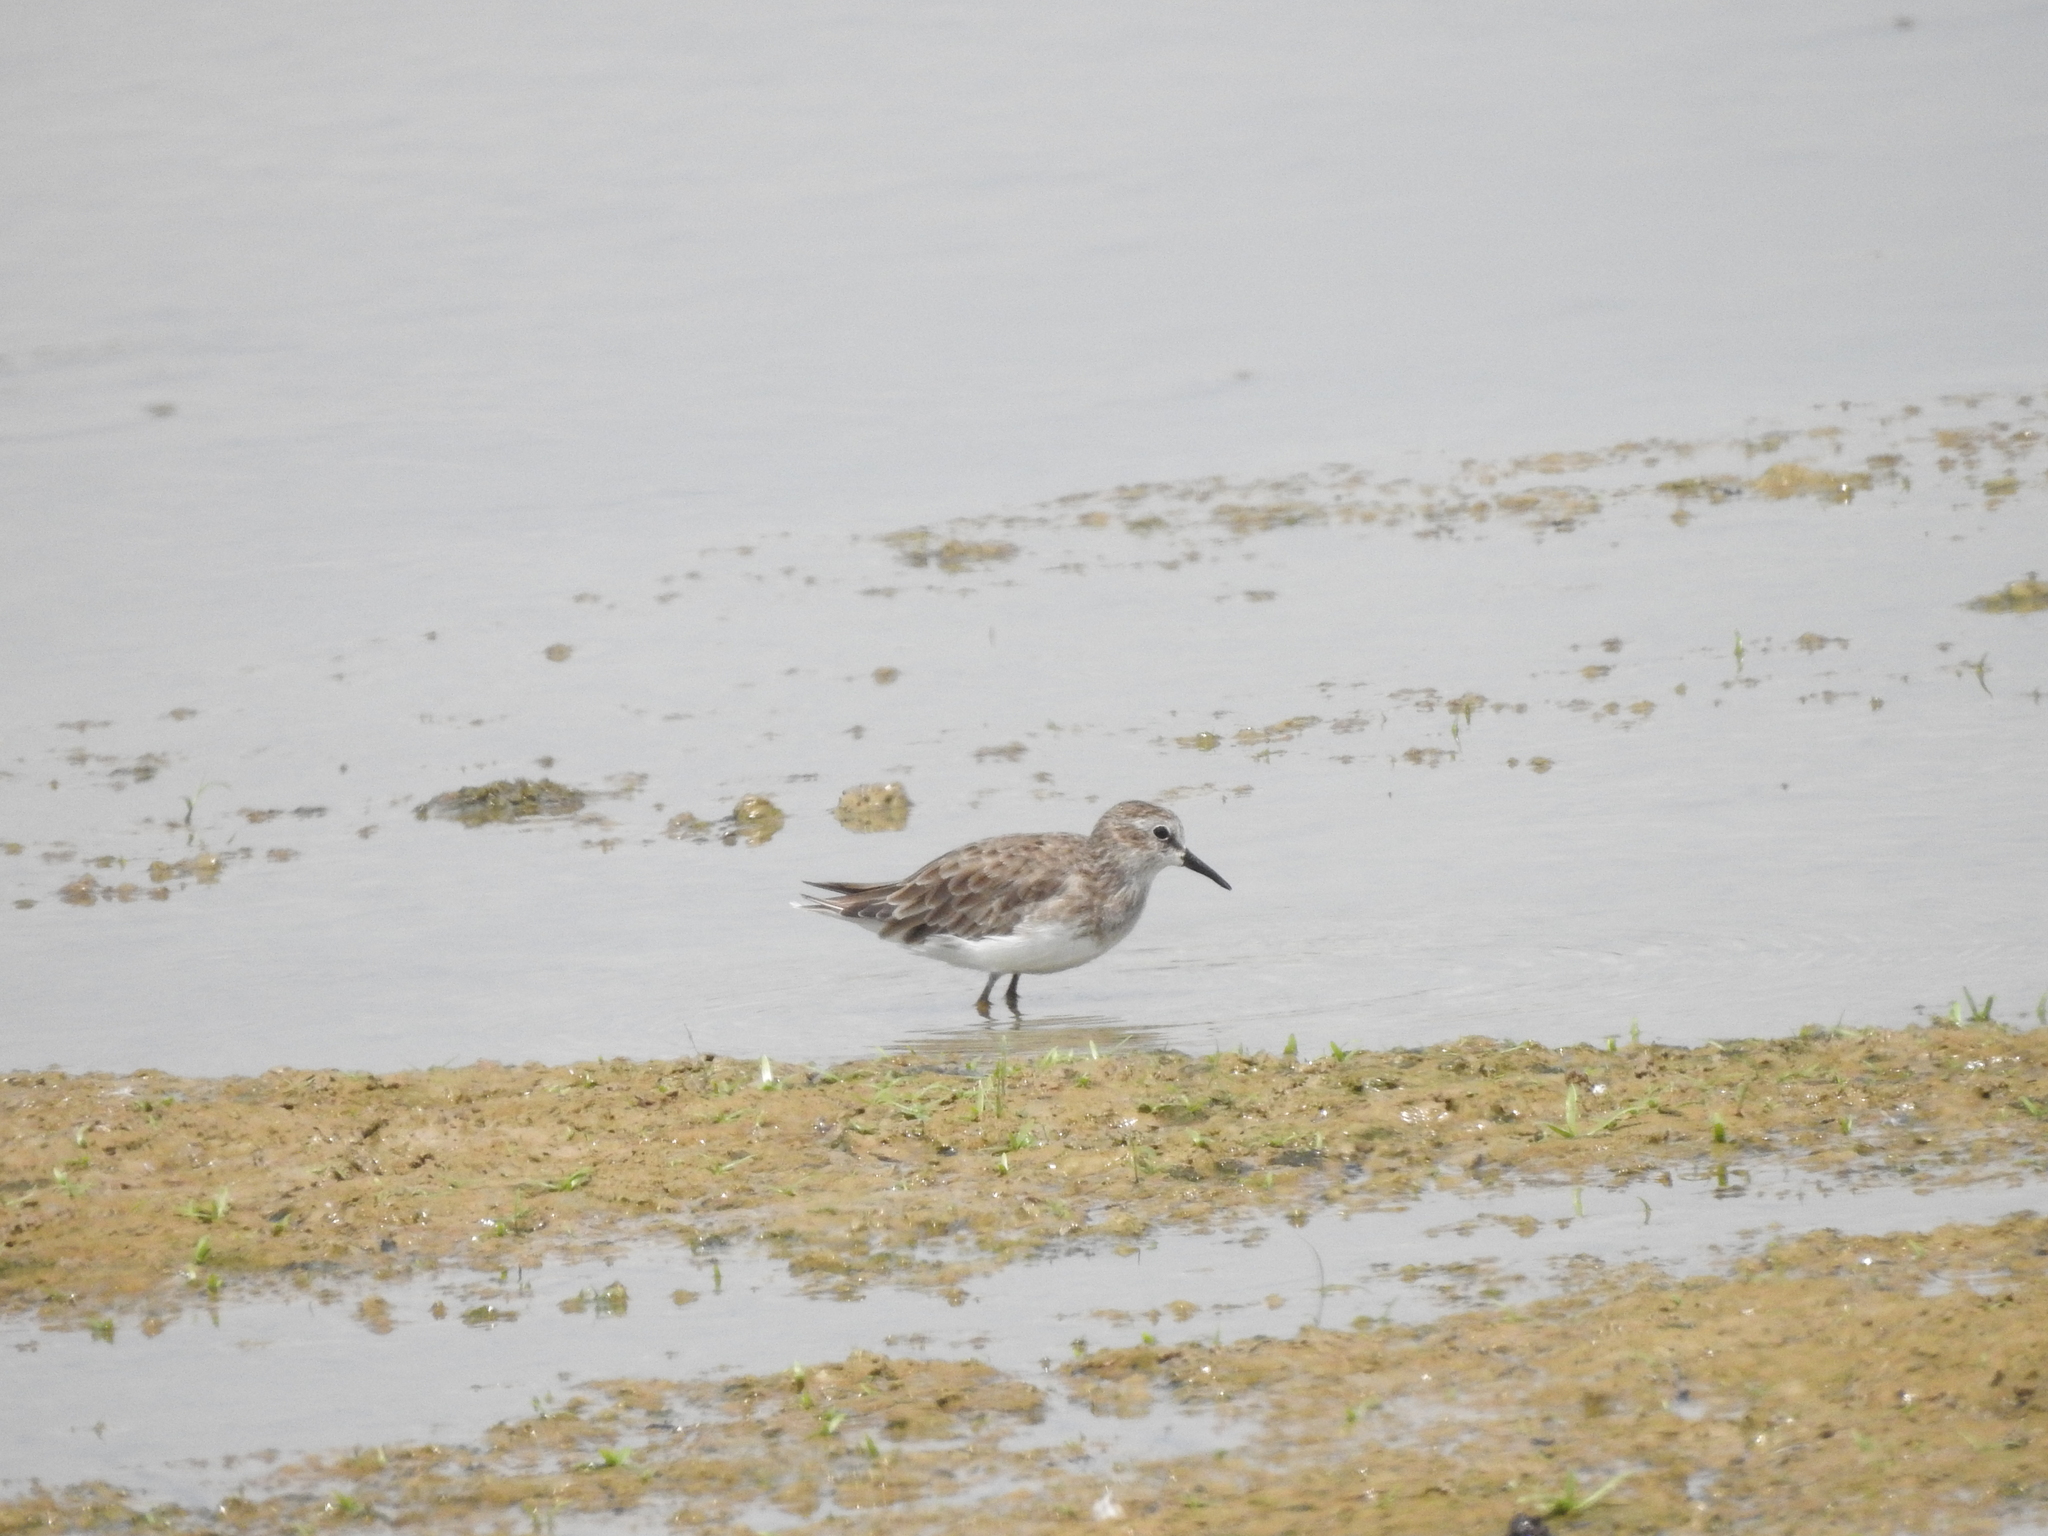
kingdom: Animalia
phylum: Chordata
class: Aves
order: Charadriiformes
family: Scolopacidae
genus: Calidris
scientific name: Calidris minutilla
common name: Least sandpiper
